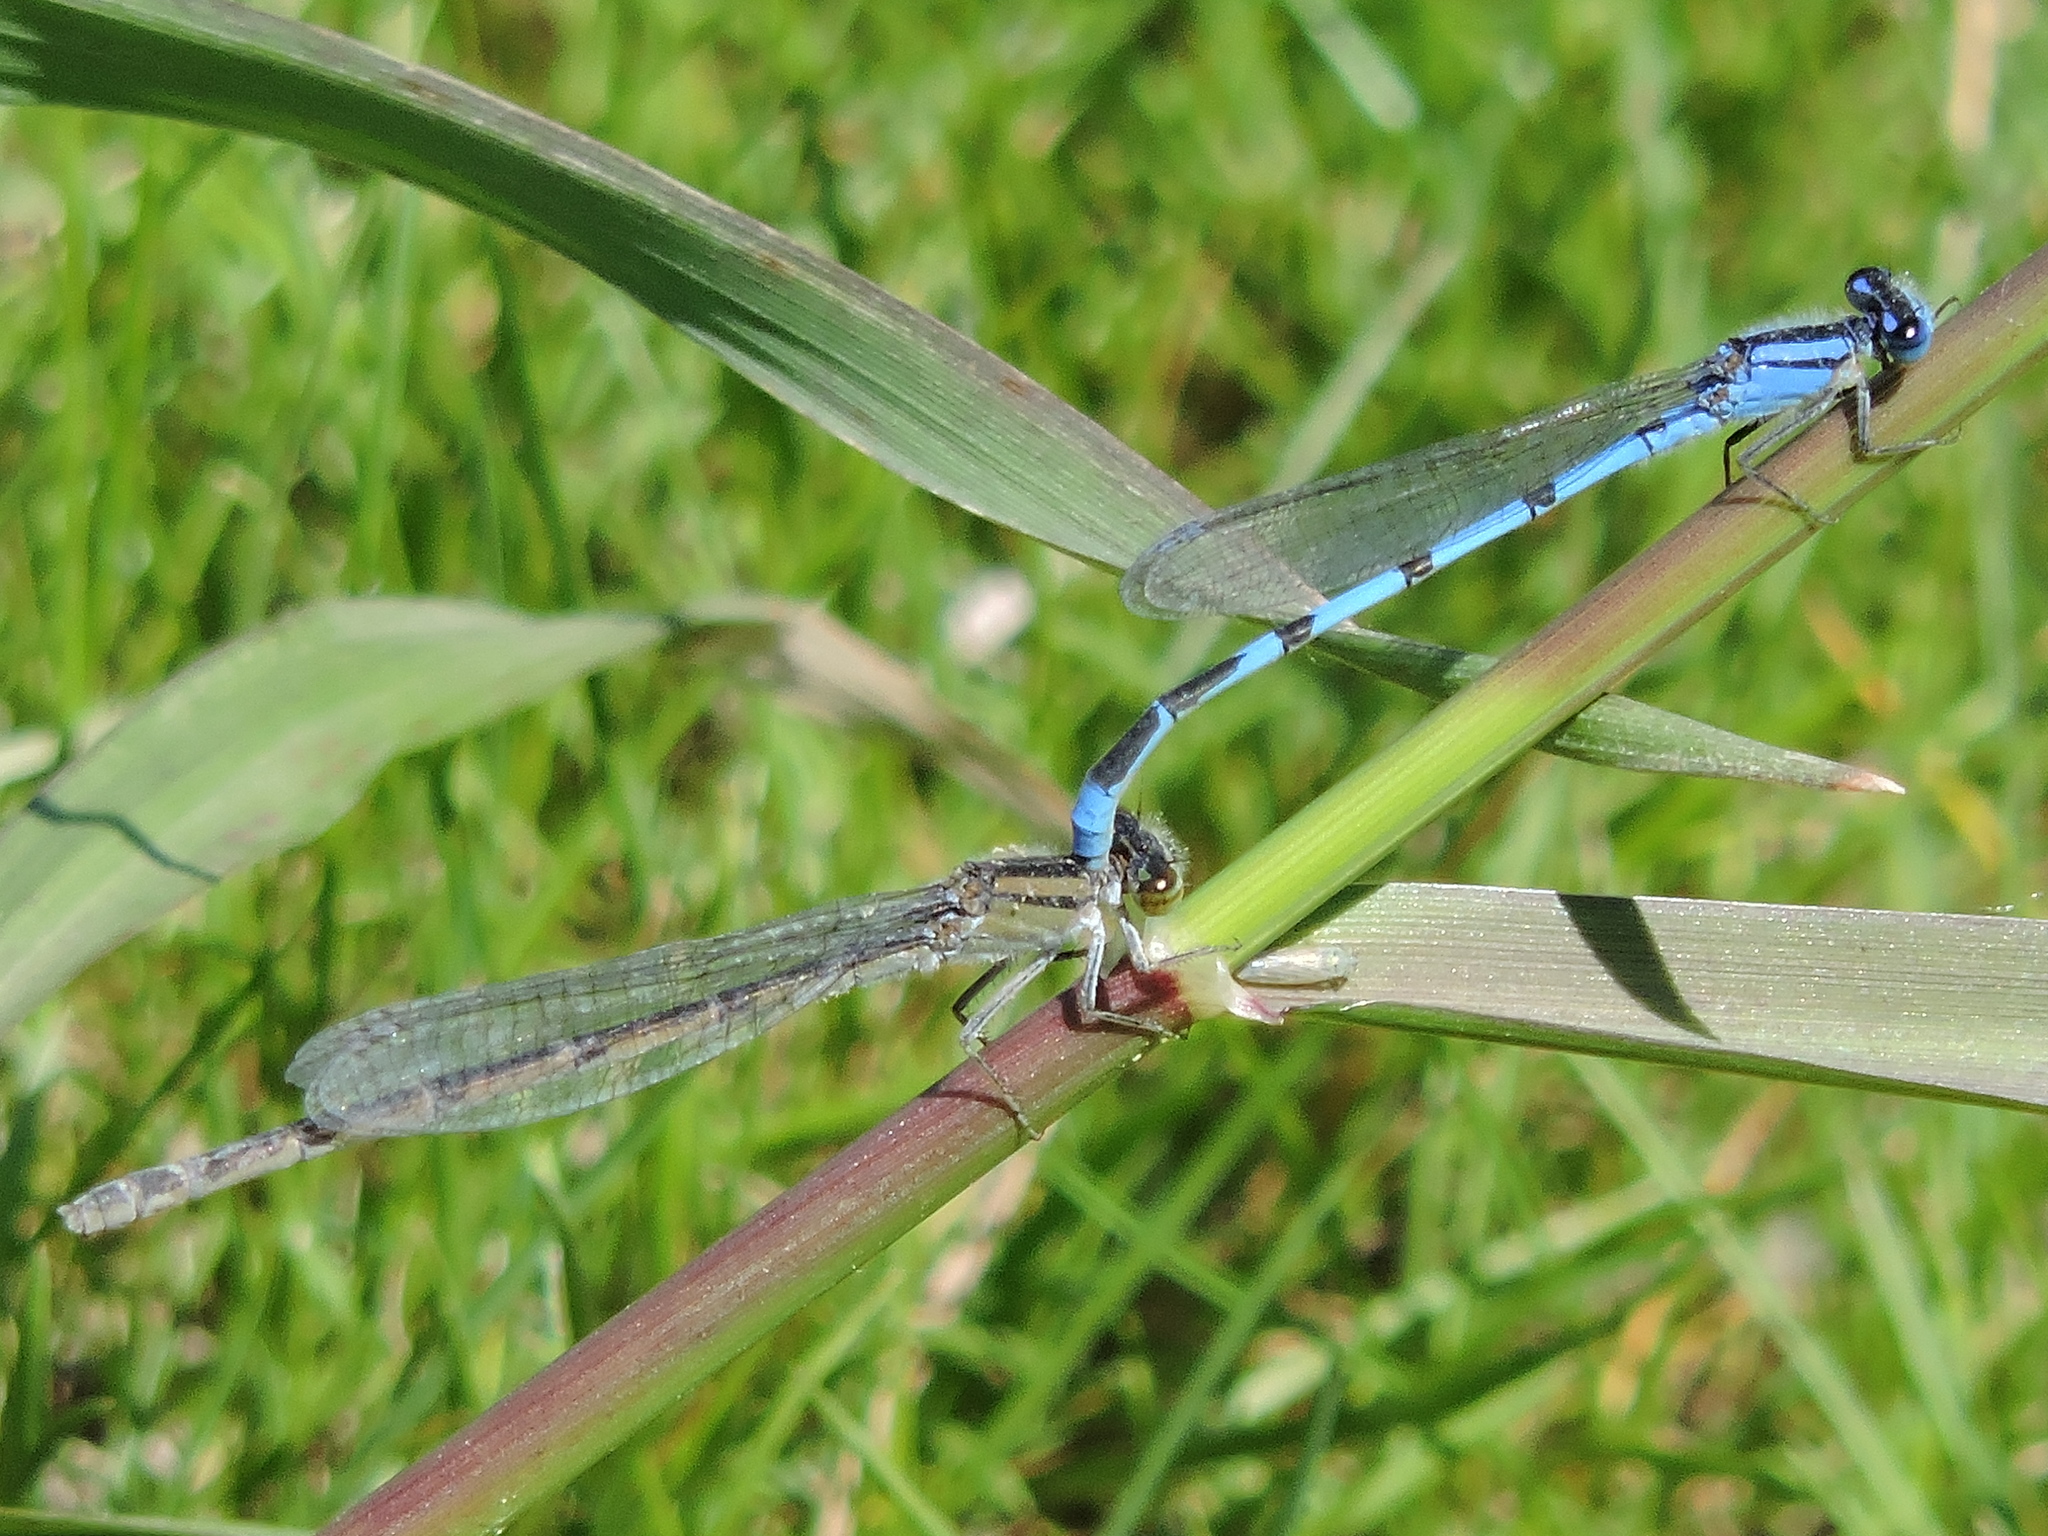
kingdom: Animalia
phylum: Arthropoda
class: Insecta
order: Odonata
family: Coenagrionidae
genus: Enallagma
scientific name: Enallagma civile
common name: Damselfly
